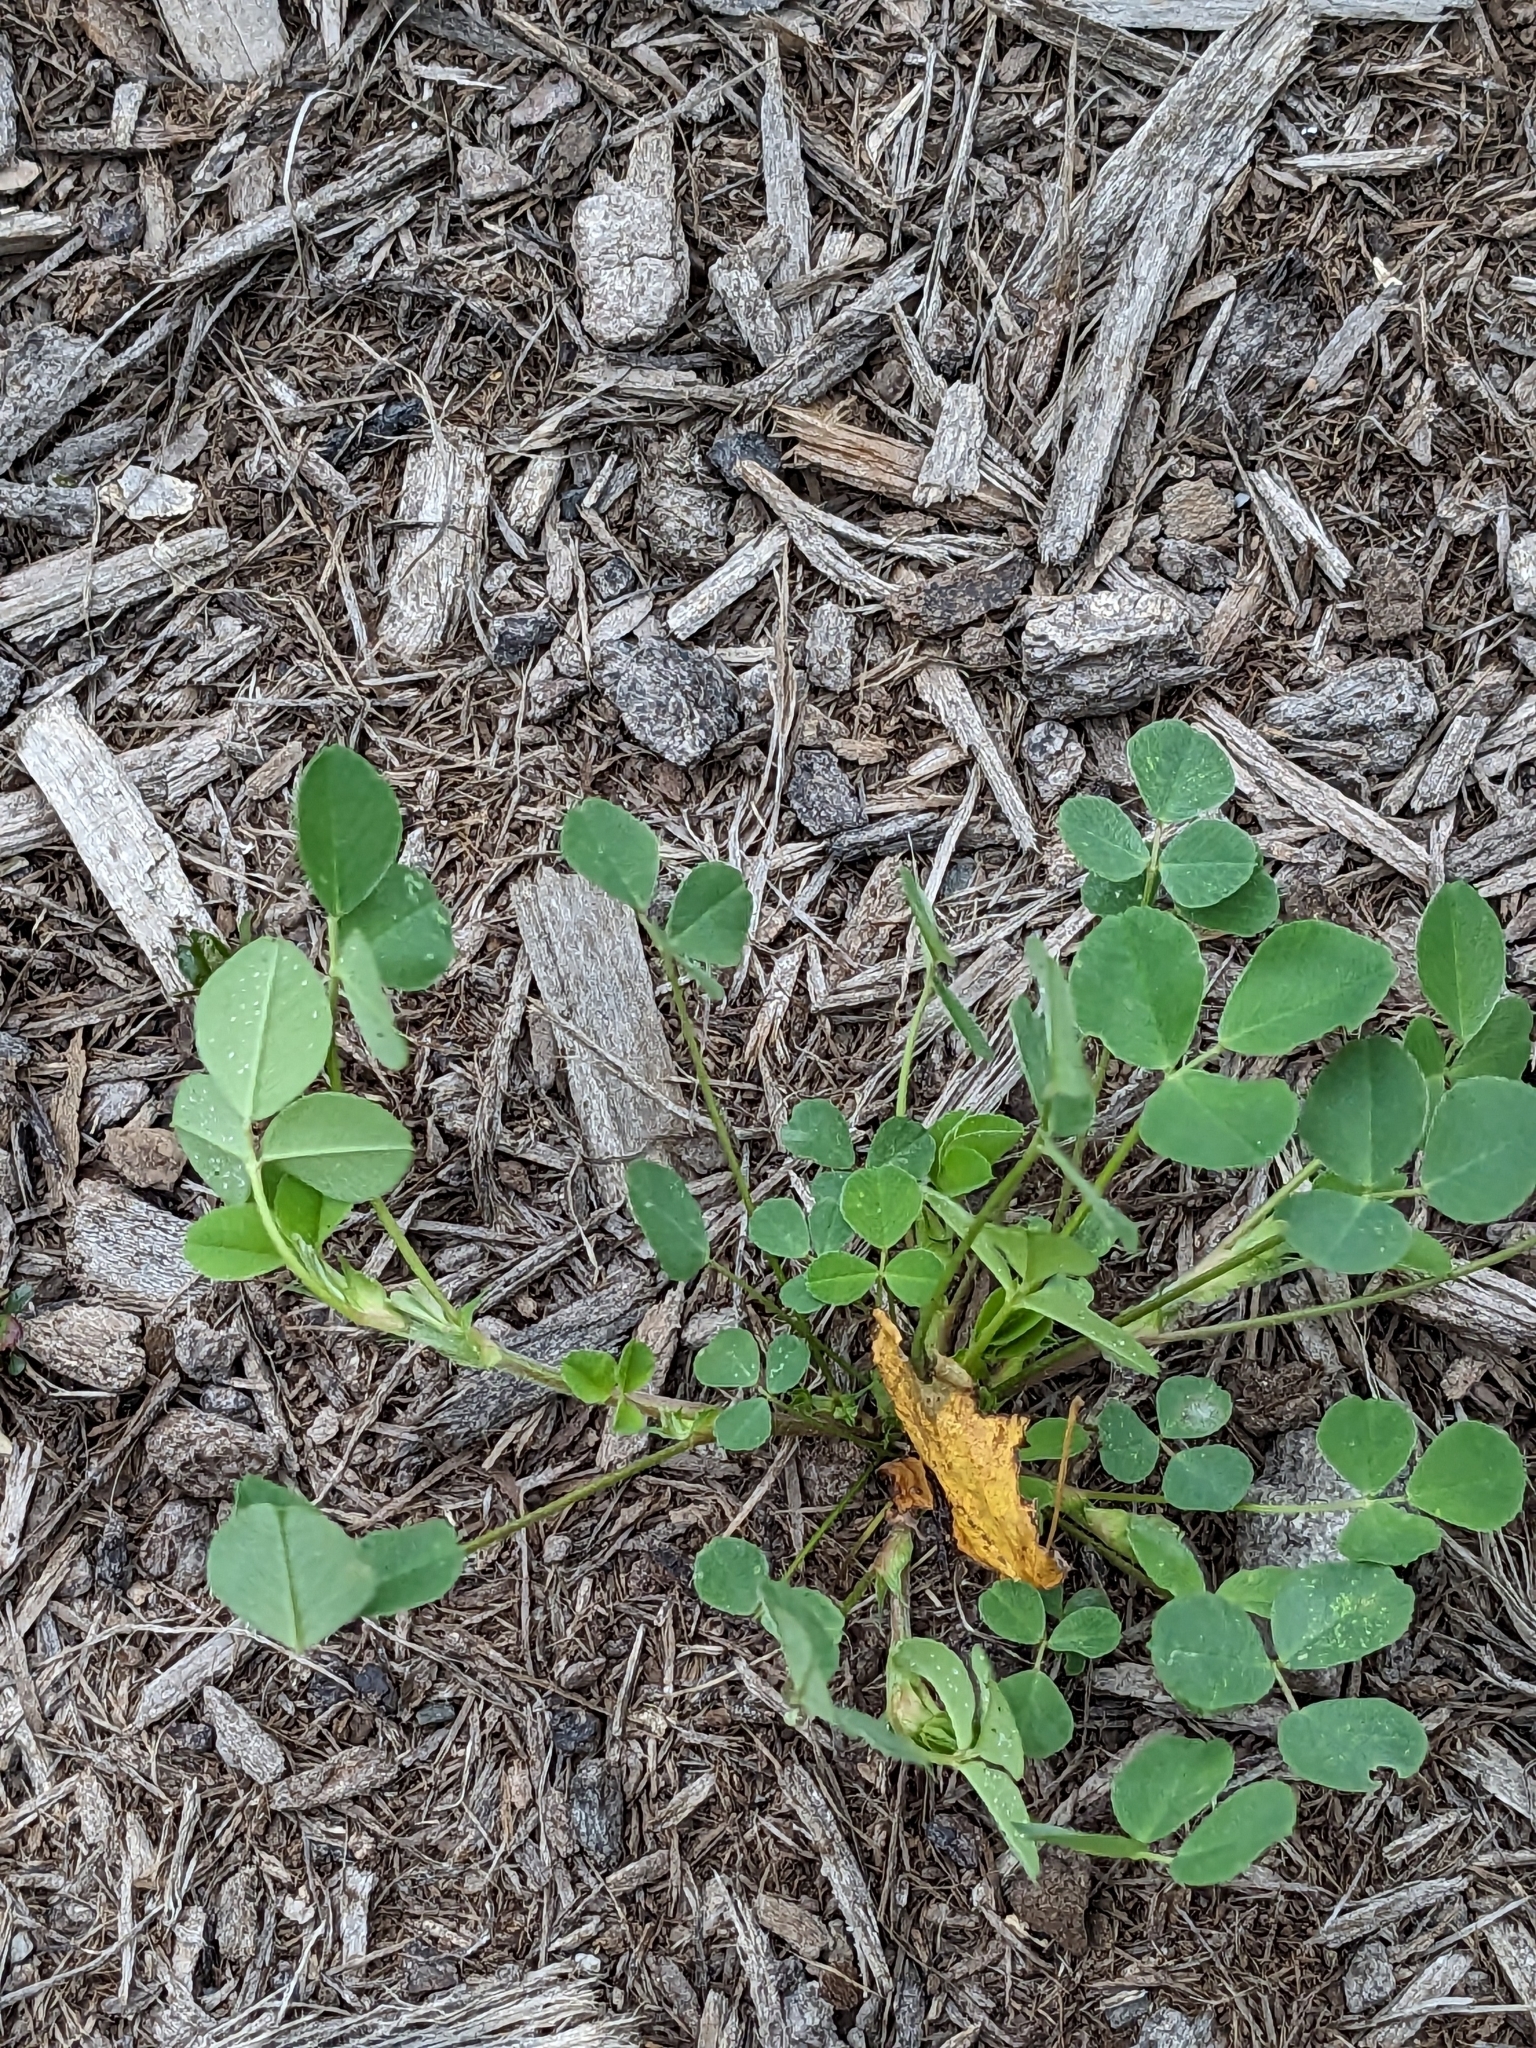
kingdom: Plantae
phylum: Tracheophyta
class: Magnoliopsida
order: Fabales
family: Fabaceae
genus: Medicago
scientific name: Medicago lupulina
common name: Black medick
